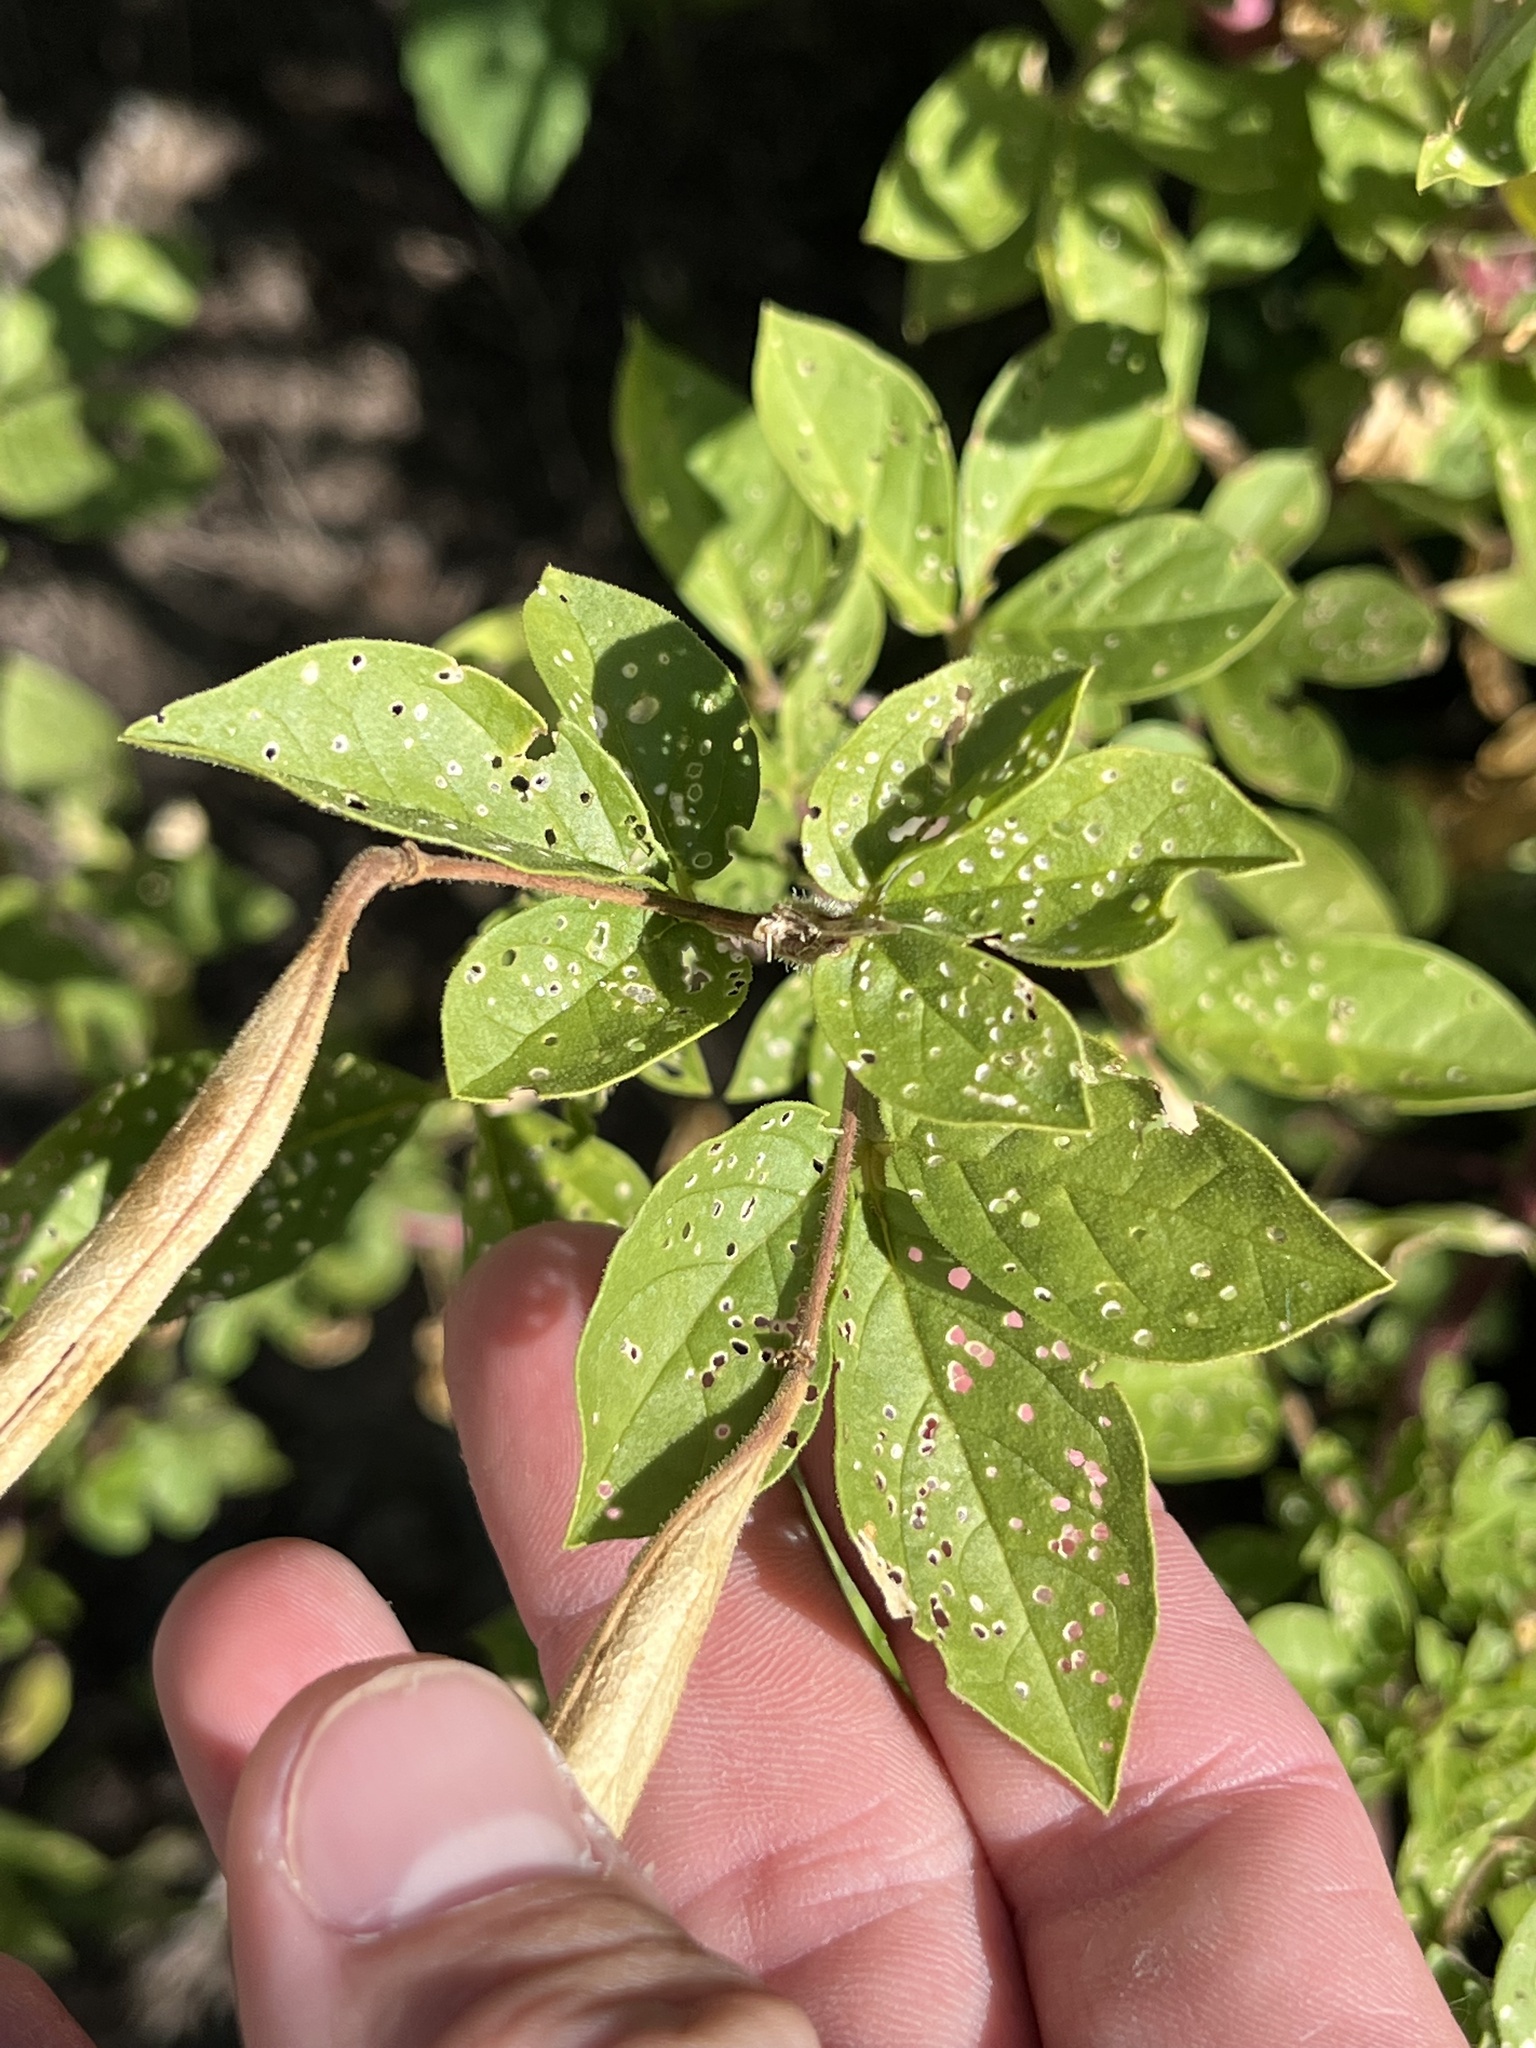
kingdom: Plantae
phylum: Tracheophyta
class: Magnoliopsida
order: Brassicales
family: Cleomaceae
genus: Polanisia
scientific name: Polanisia dodecandra
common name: Clammyweed
